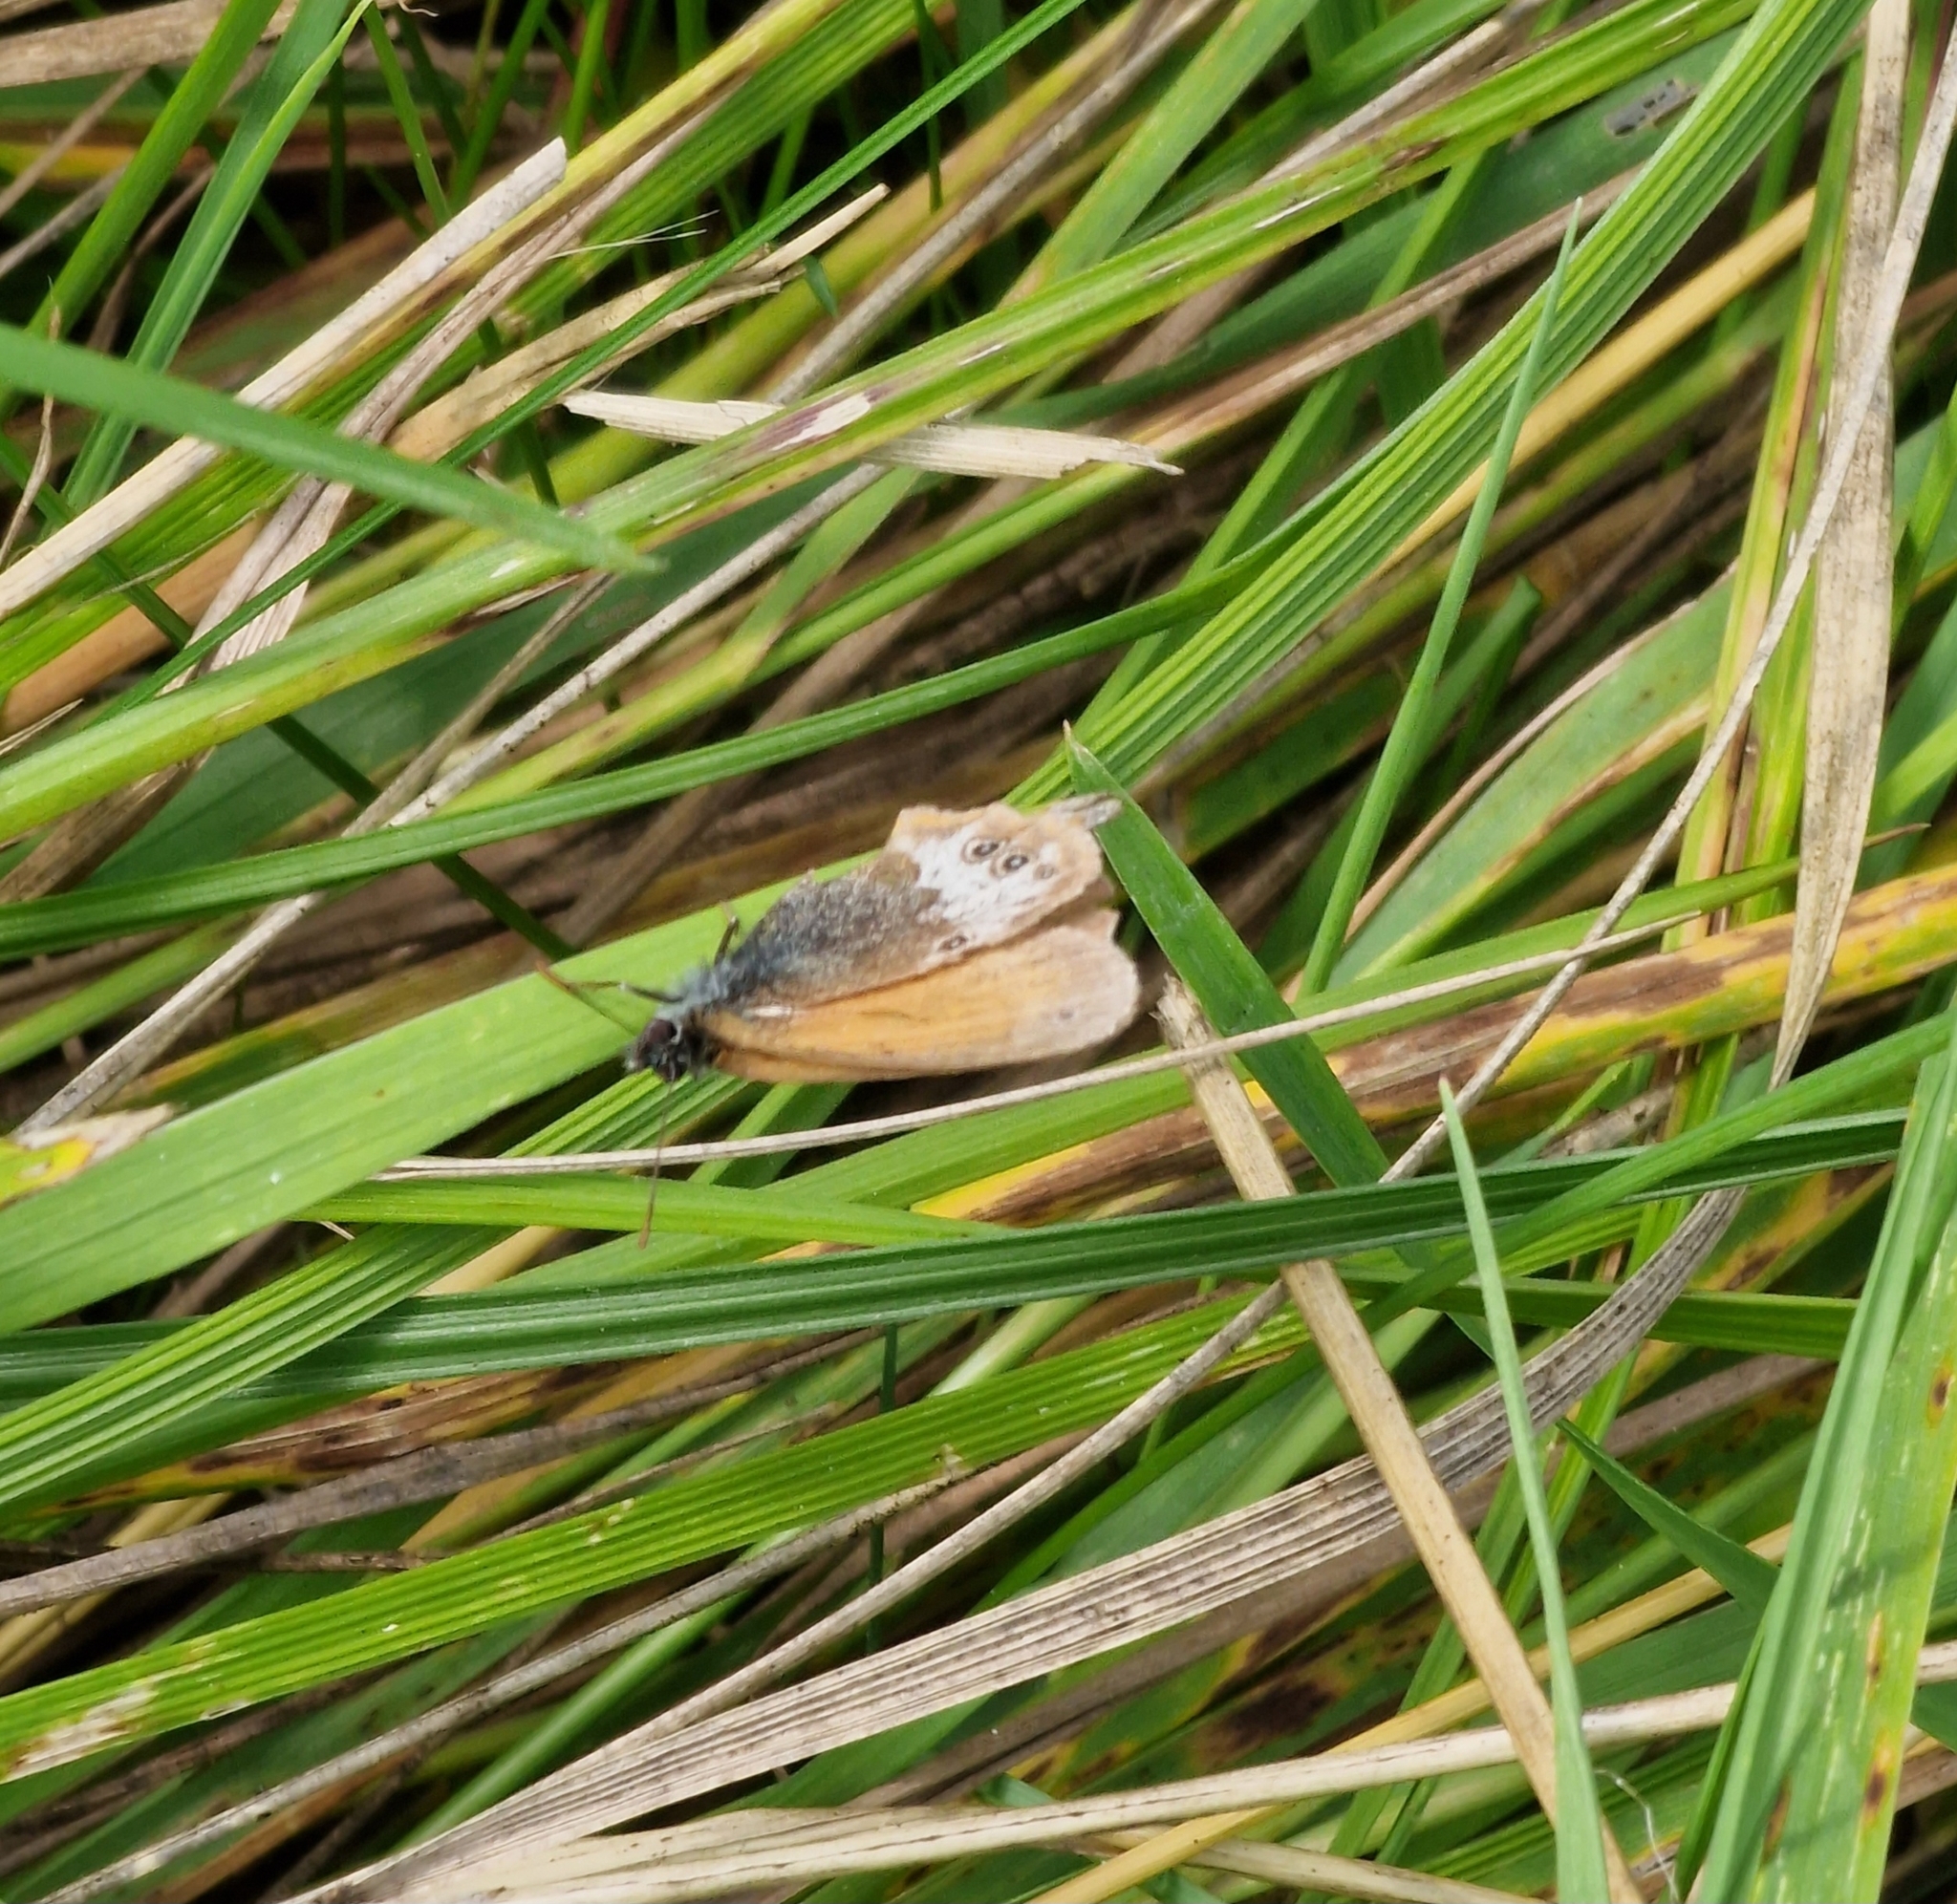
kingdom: Animalia
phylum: Arthropoda
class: Insecta
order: Lepidoptera
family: Nymphalidae
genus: Coenonympha
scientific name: Coenonympha arcania
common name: Pearly heath
